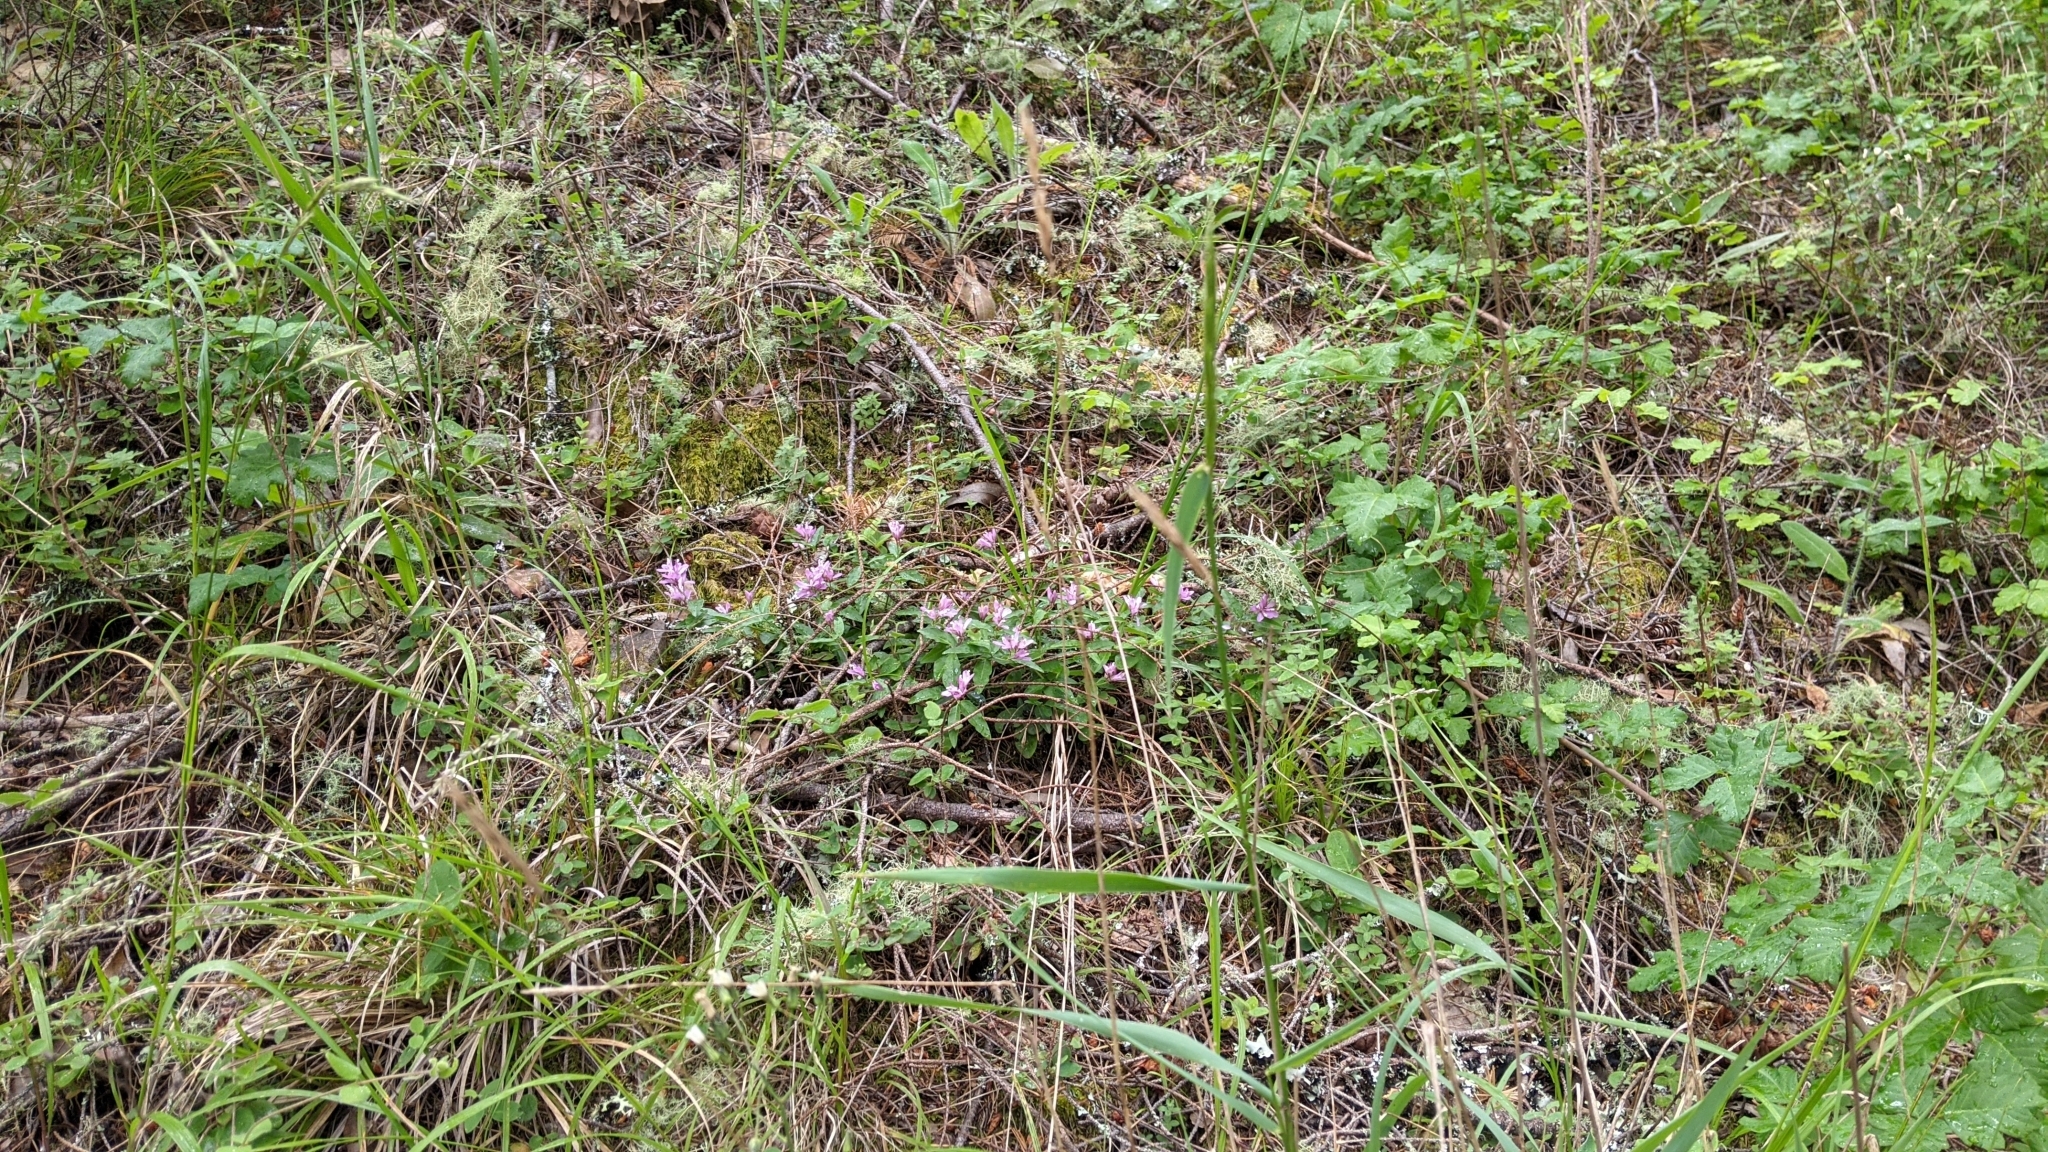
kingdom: Plantae
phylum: Tracheophyta
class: Magnoliopsida
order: Fabales
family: Polygalaceae
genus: Rhinotropis
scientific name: Rhinotropis californica
